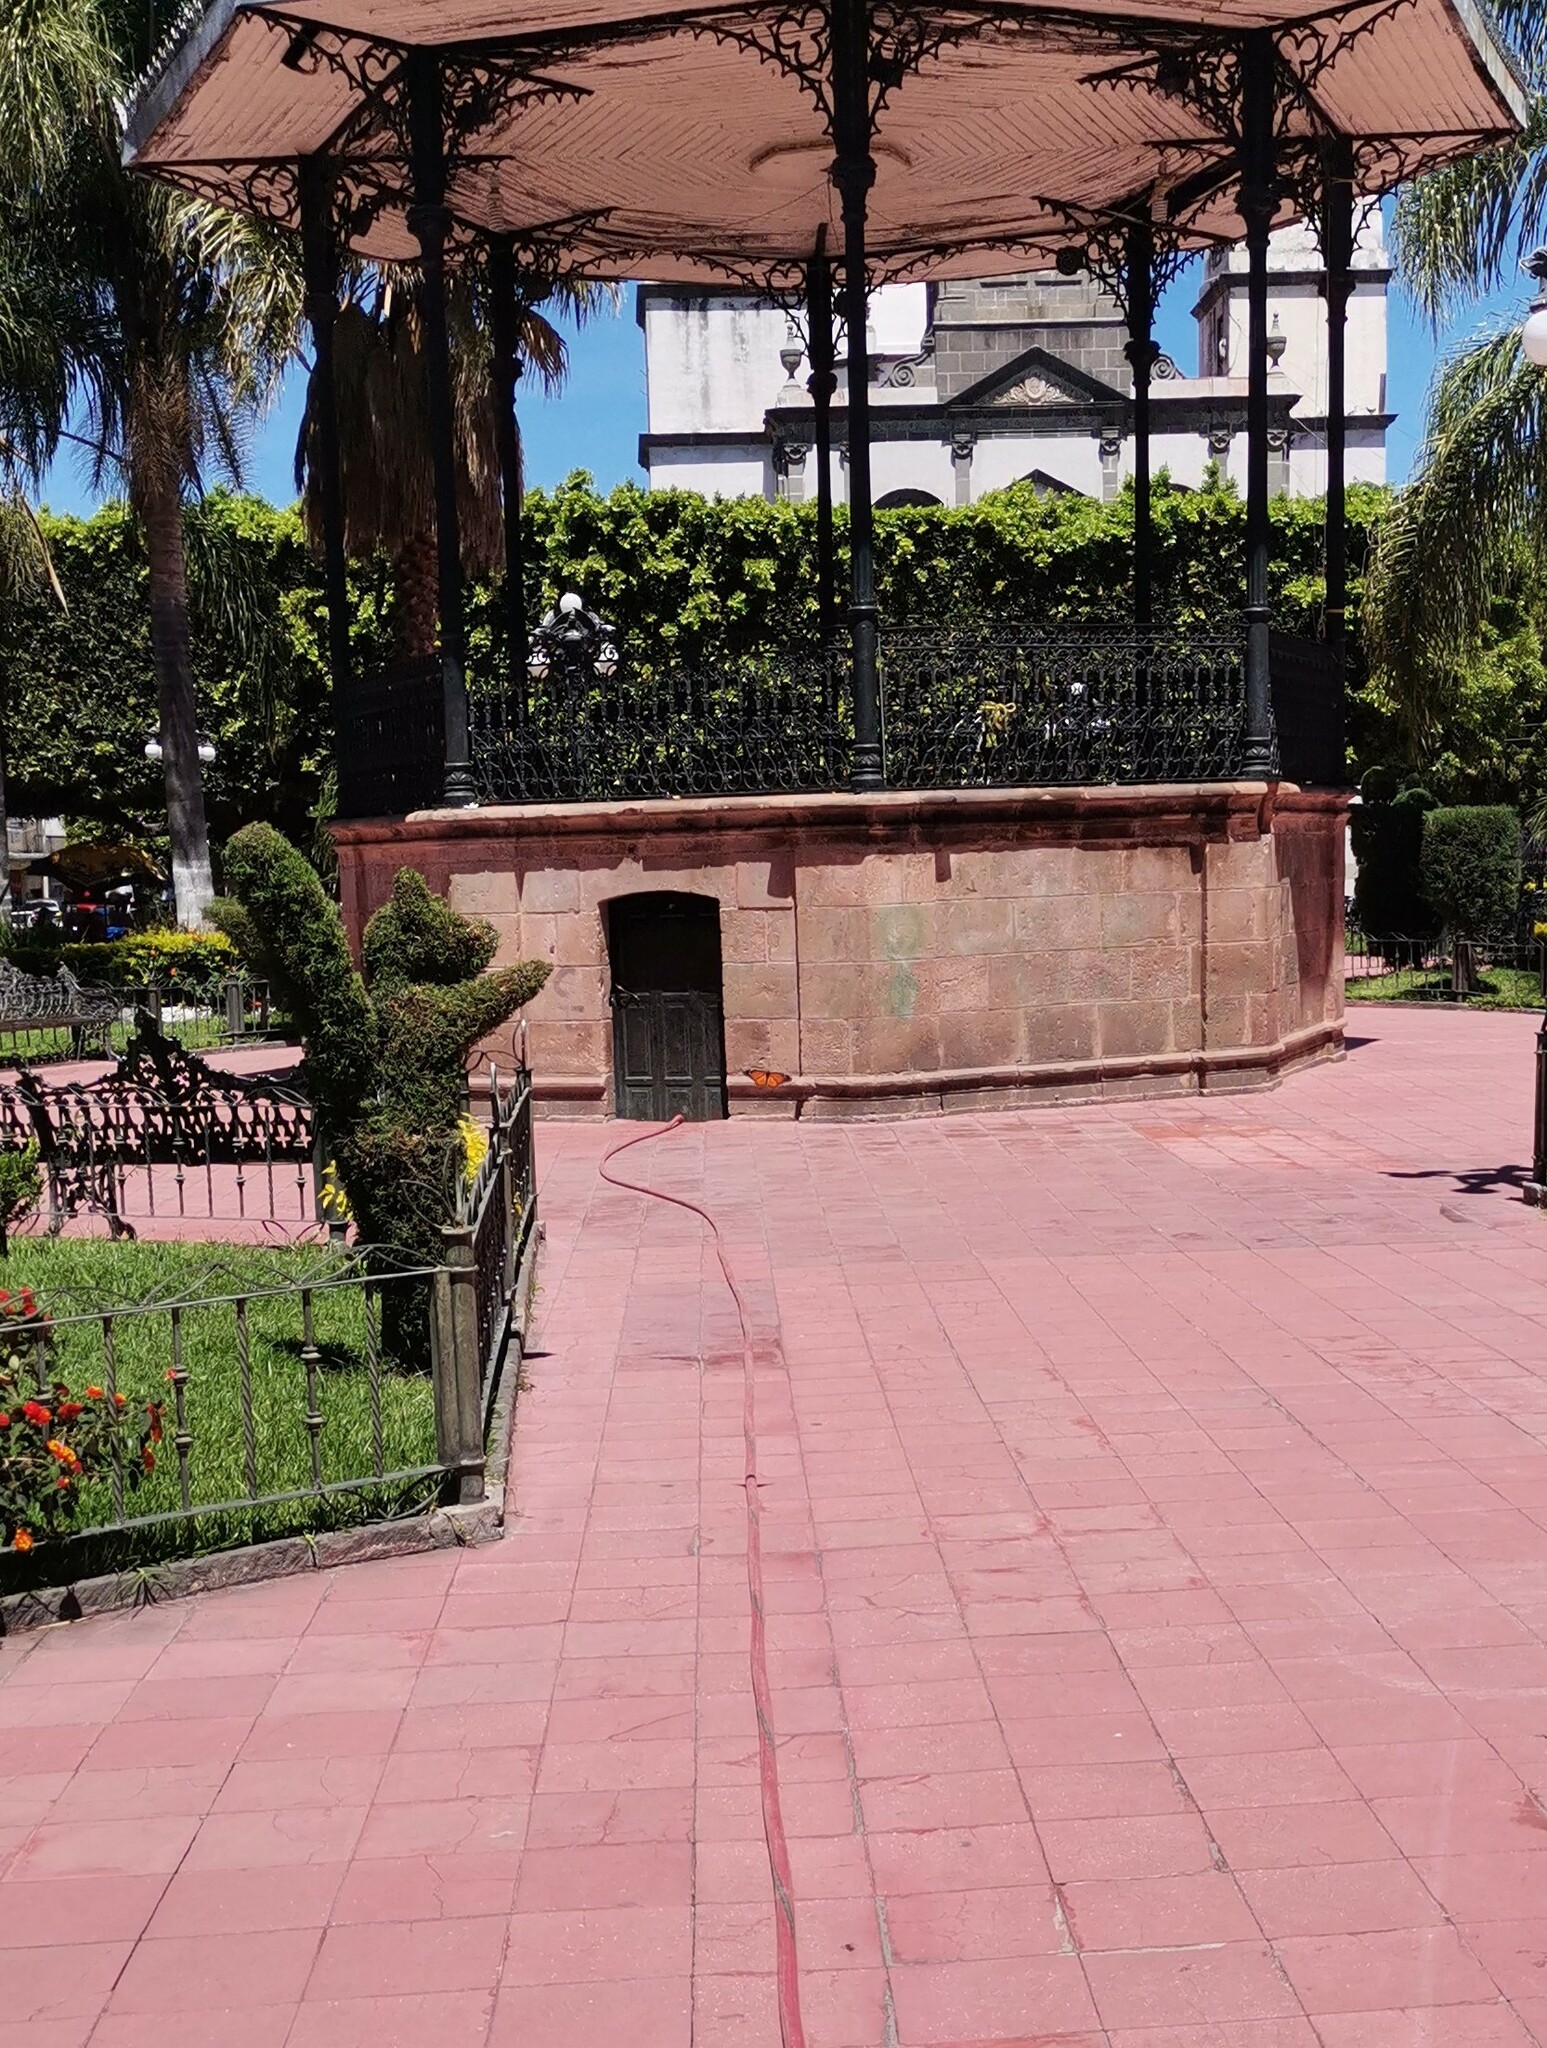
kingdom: Animalia
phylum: Arthropoda
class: Insecta
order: Lepidoptera
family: Nymphalidae
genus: Danaus
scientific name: Danaus plexippus
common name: Monarch
